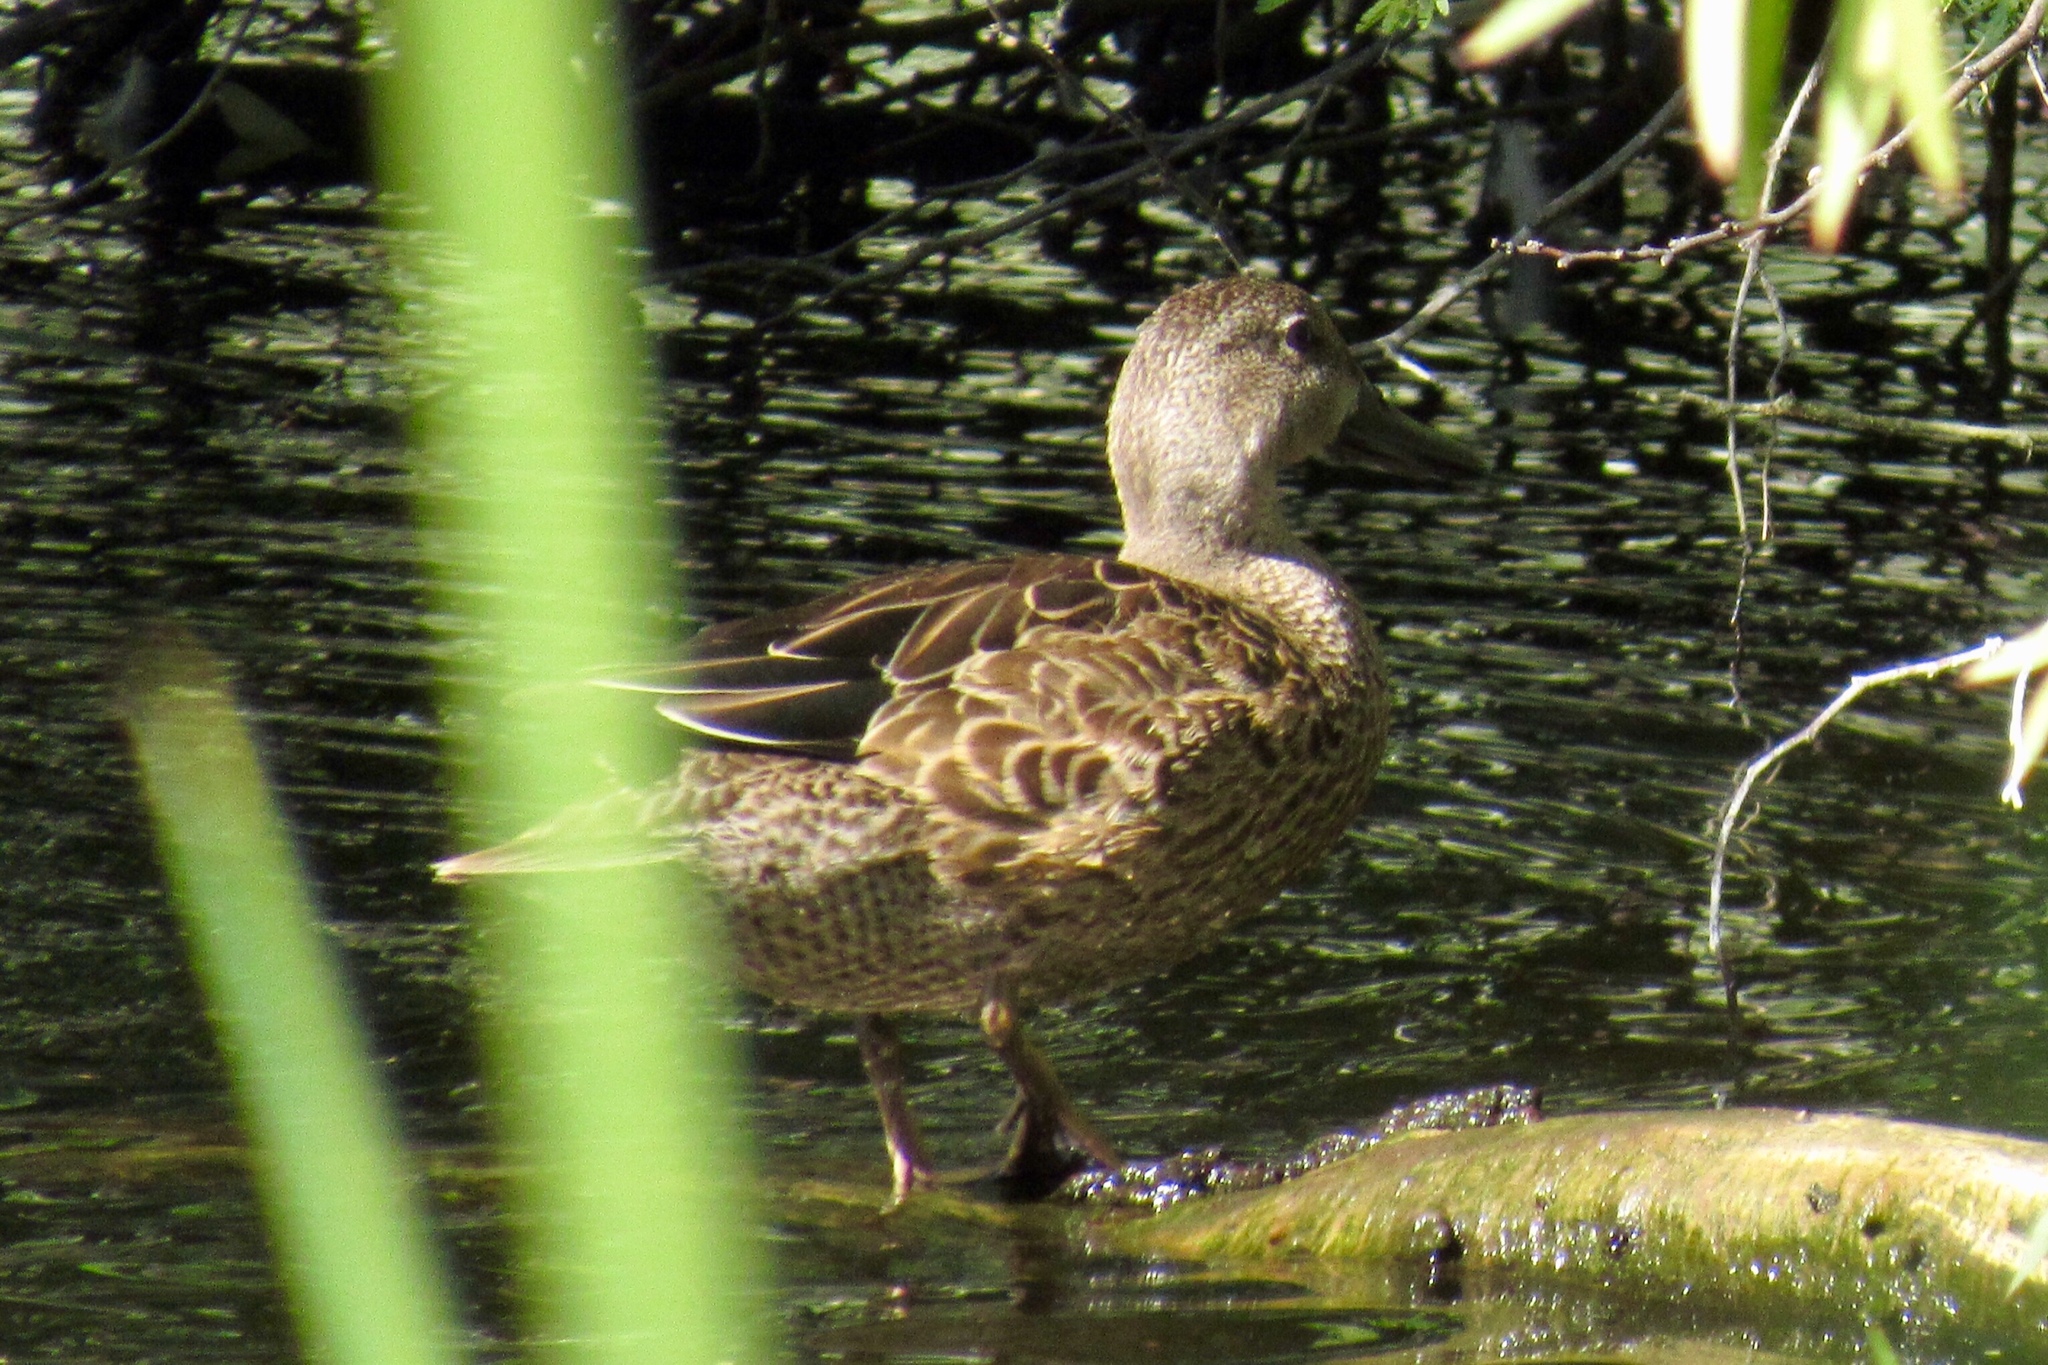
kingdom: Animalia
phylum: Chordata
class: Aves
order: Anseriformes
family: Anatidae
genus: Spatula
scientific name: Spatula discors
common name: Blue-winged teal
